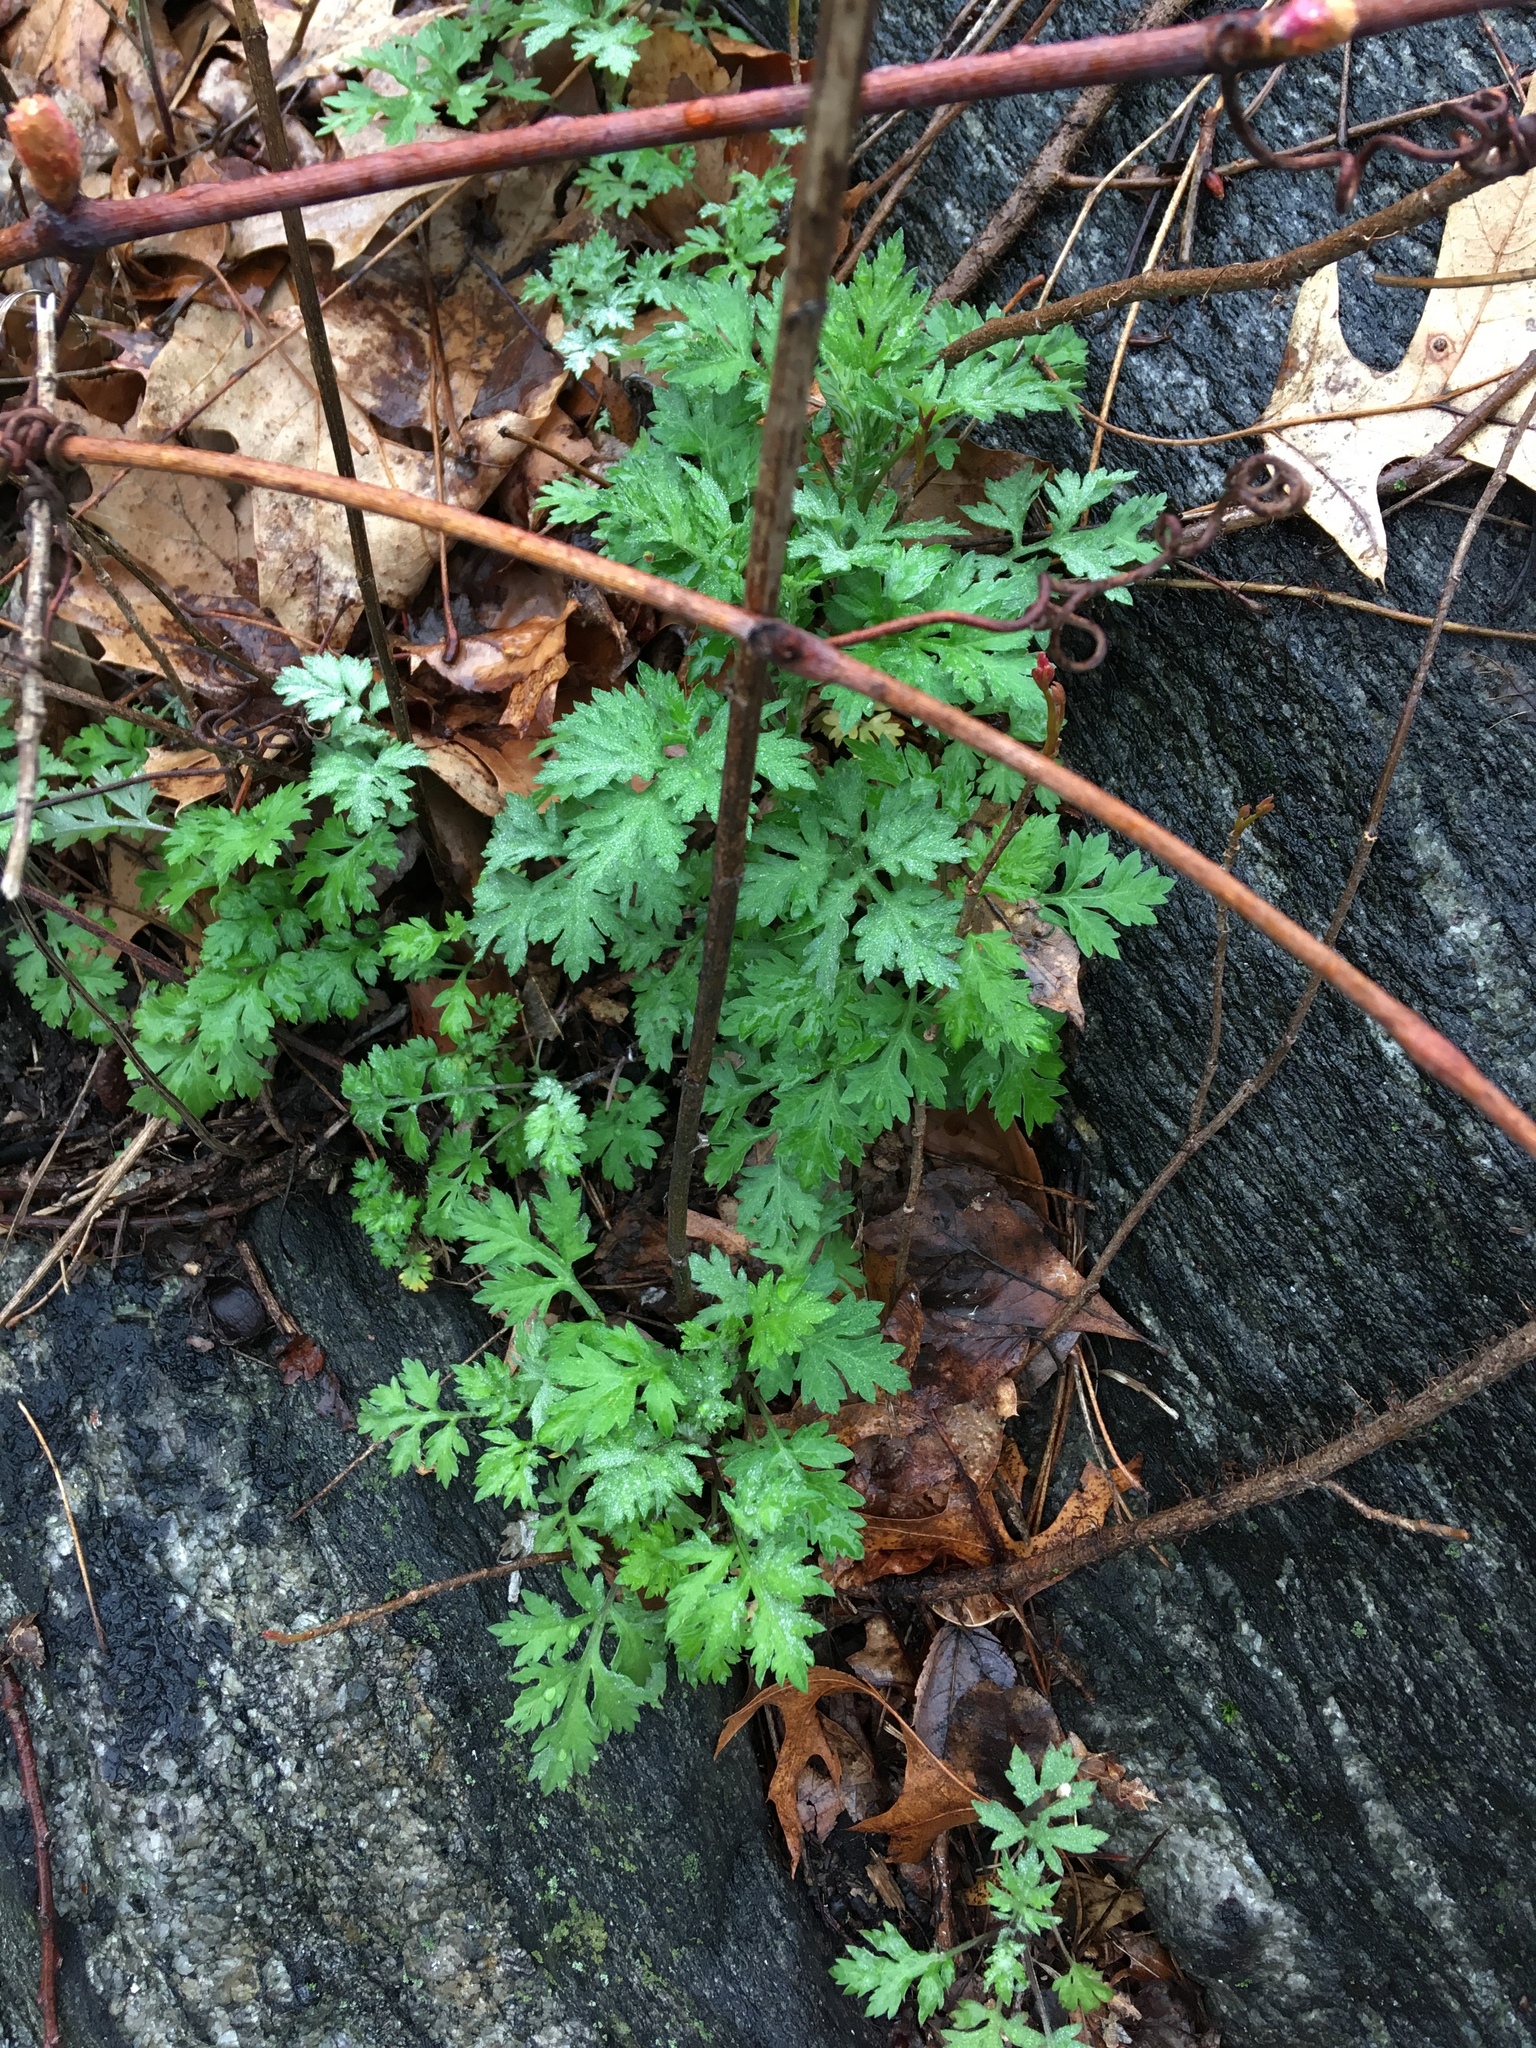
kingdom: Plantae
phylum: Tracheophyta
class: Magnoliopsida
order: Asterales
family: Asteraceae
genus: Artemisia
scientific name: Artemisia vulgaris
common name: Mugwort
